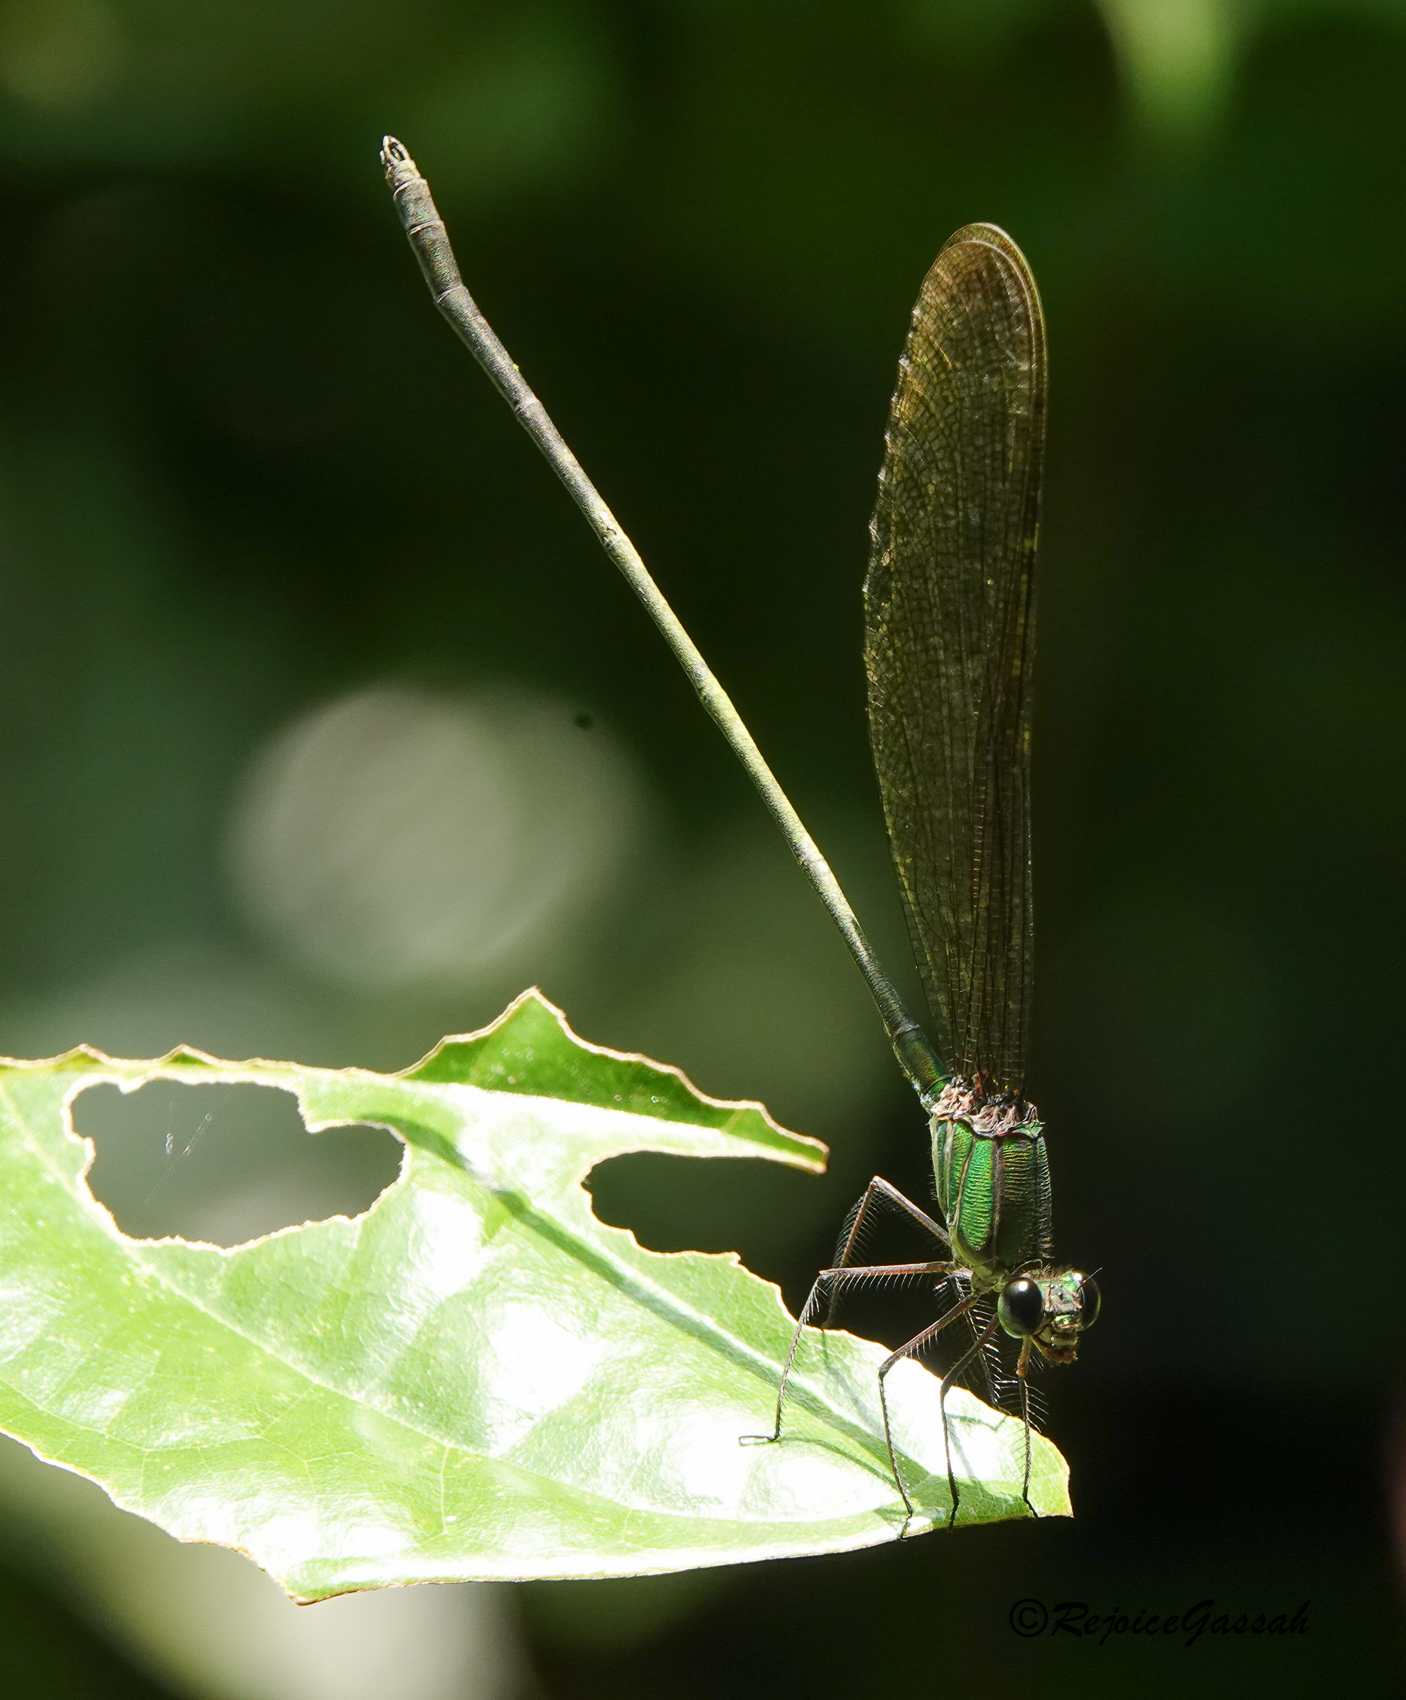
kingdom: Animalia
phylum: Arthropoda
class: Insecta
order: Odonata
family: Calopterygidae
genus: Vestalis
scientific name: Vestalis gracilis
